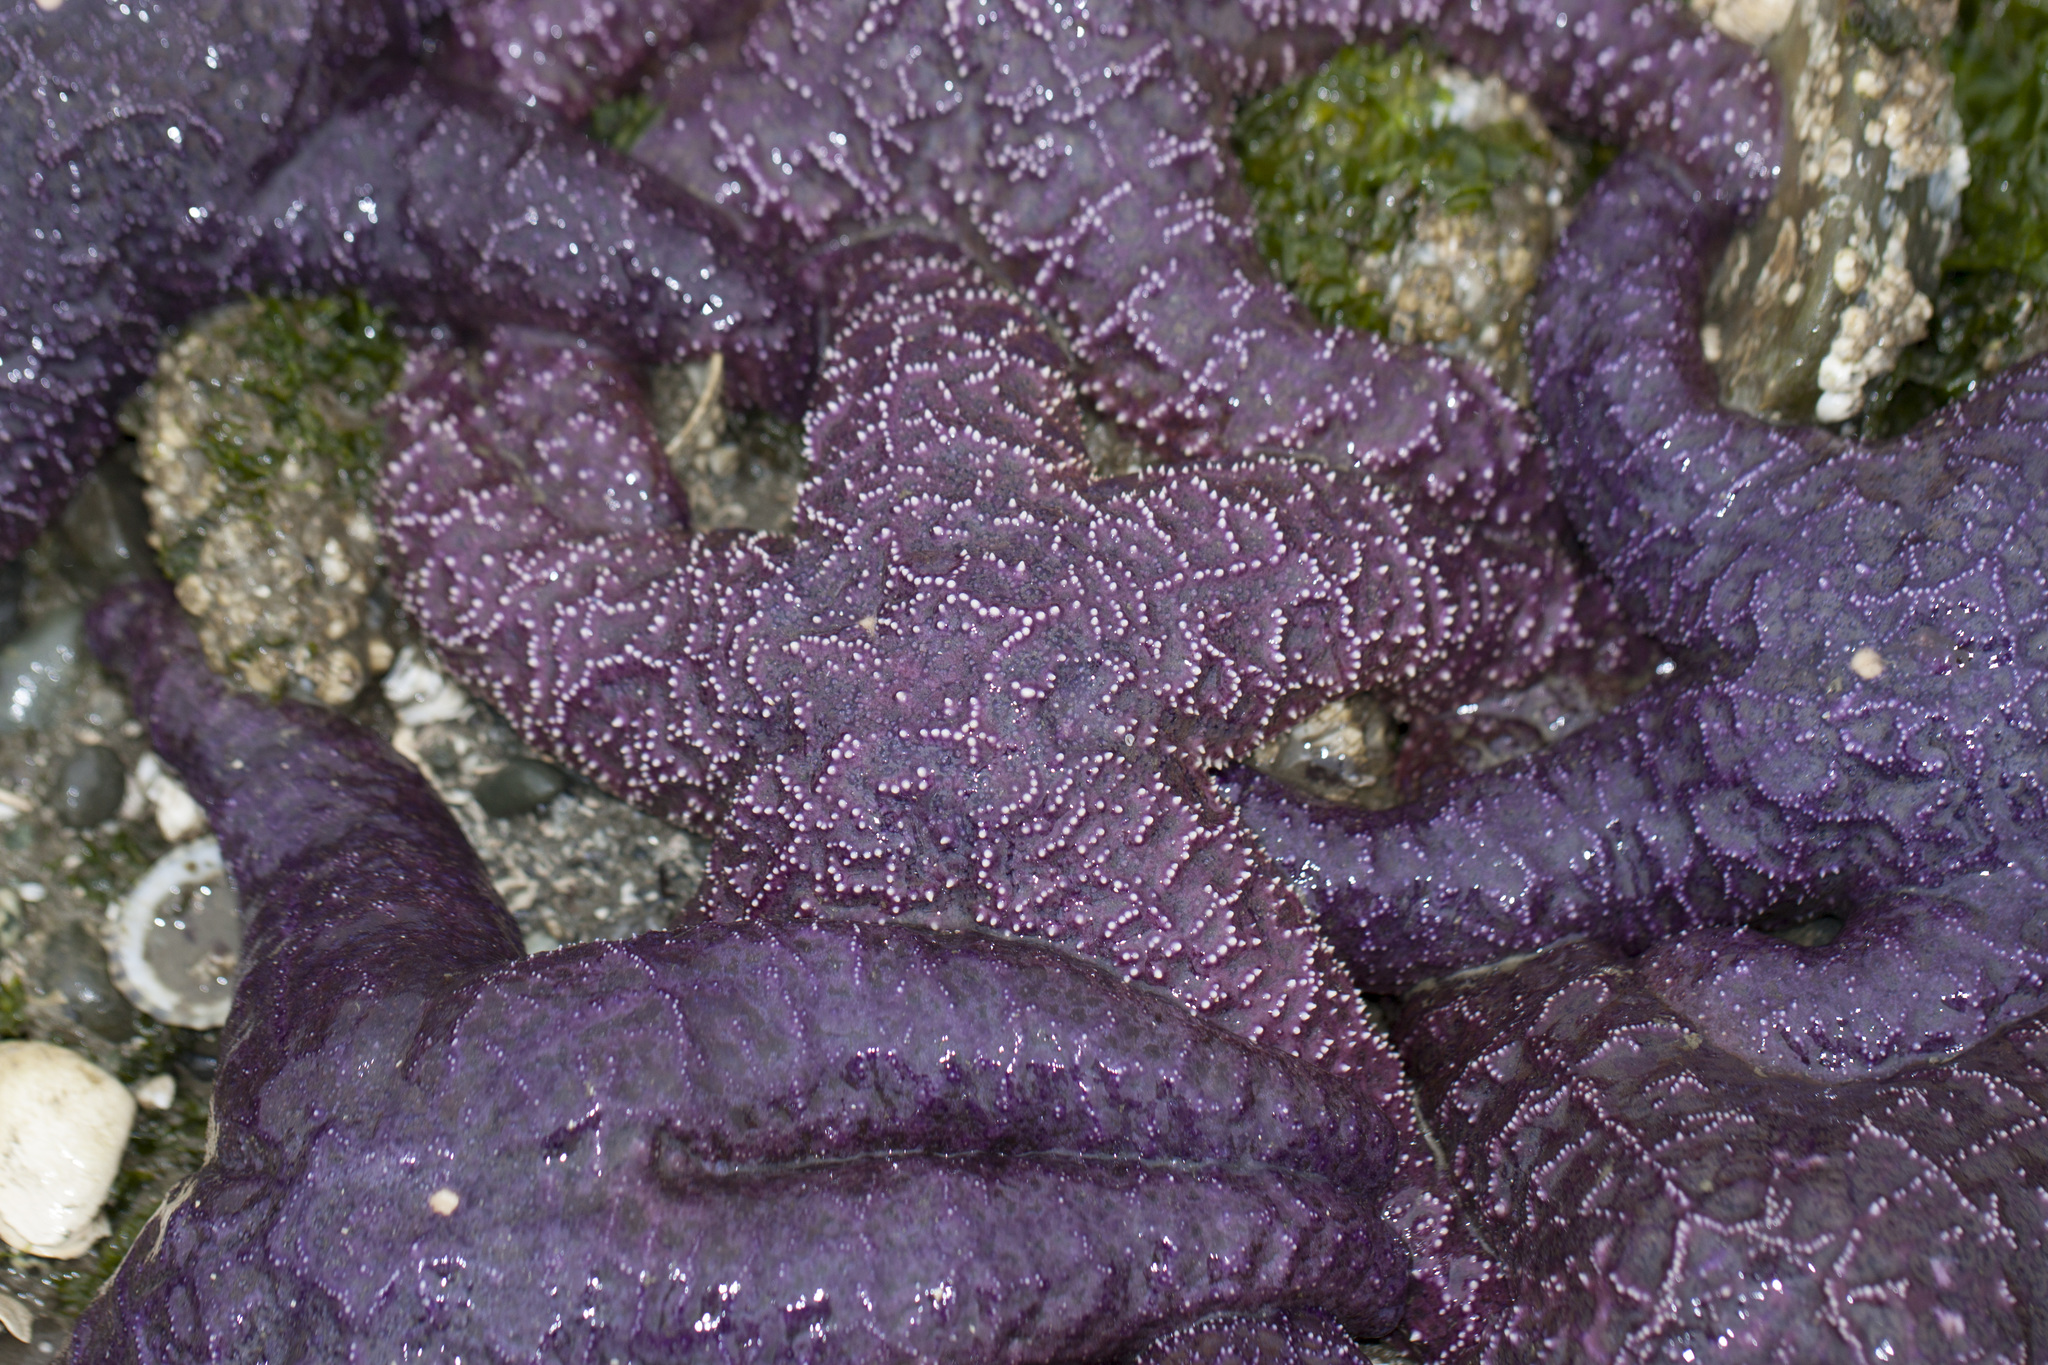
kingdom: Animalia
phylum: Echinodermata
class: Asteroidea
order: Forcipulatida
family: Asteriidae
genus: Pisaster
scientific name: Pisaster ochraceus
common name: Ochre stars
